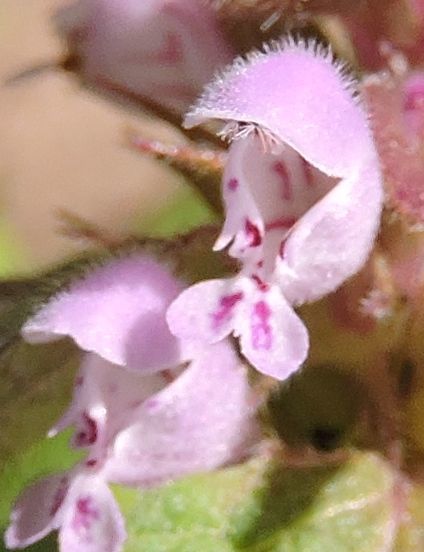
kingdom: Plantae
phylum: Tracheophyta
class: Magnoliopsida
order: Lamiales
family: Lamiaceae
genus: Lamium
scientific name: Lamium purpureum
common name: Red dead-nettle
